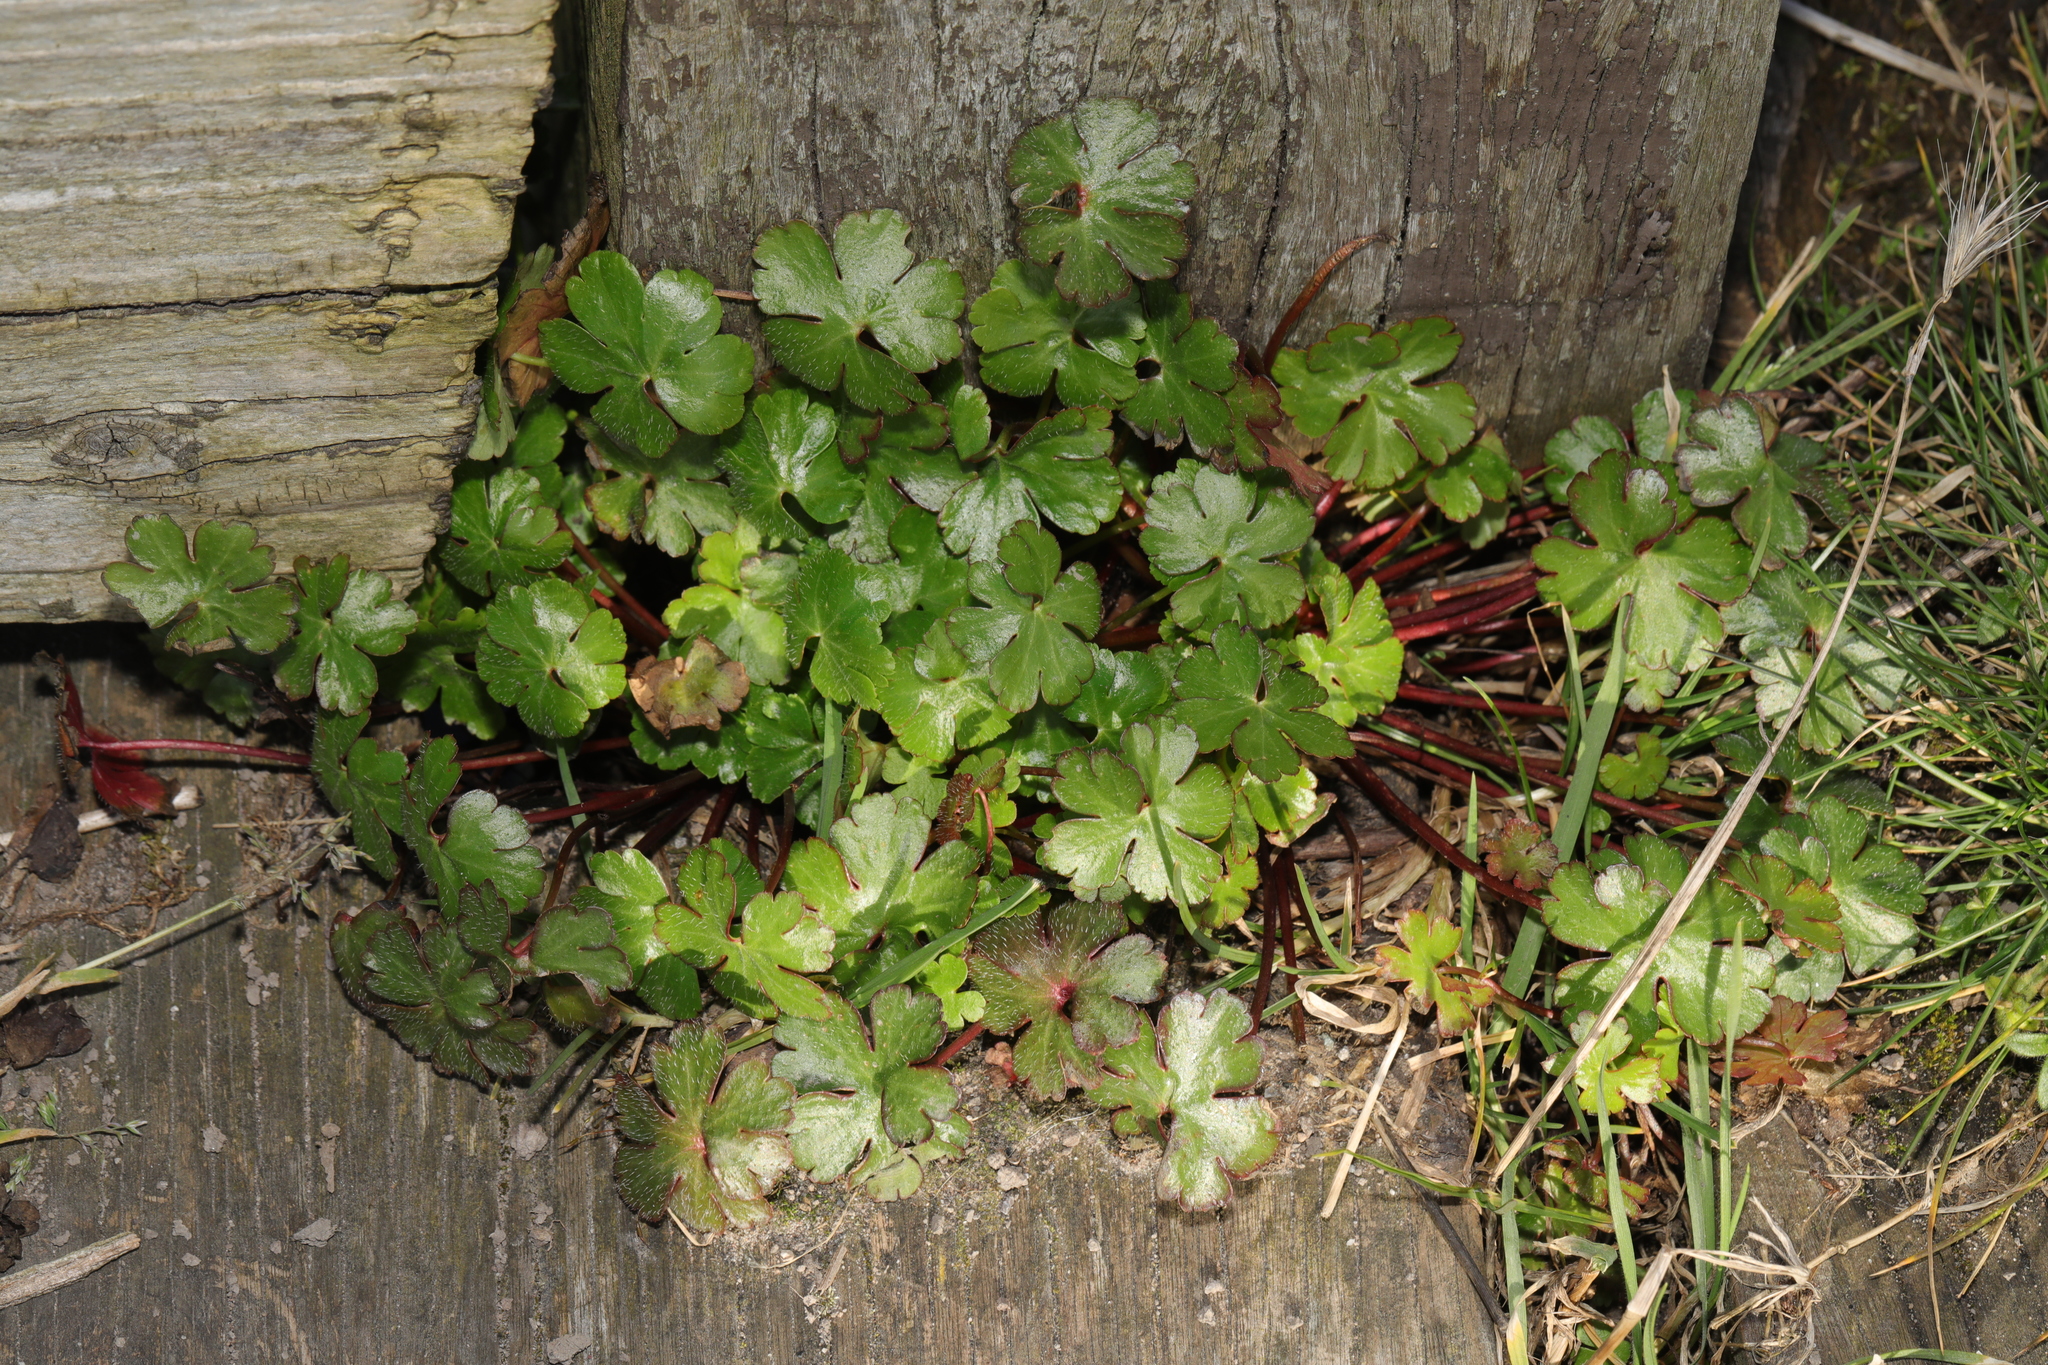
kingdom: Plantae
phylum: Tracheophyta
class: Magnoliopsida
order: Geraniales
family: Geraniaceae
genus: Geranium
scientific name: Geranium lucidum
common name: Shining crane's-bill
